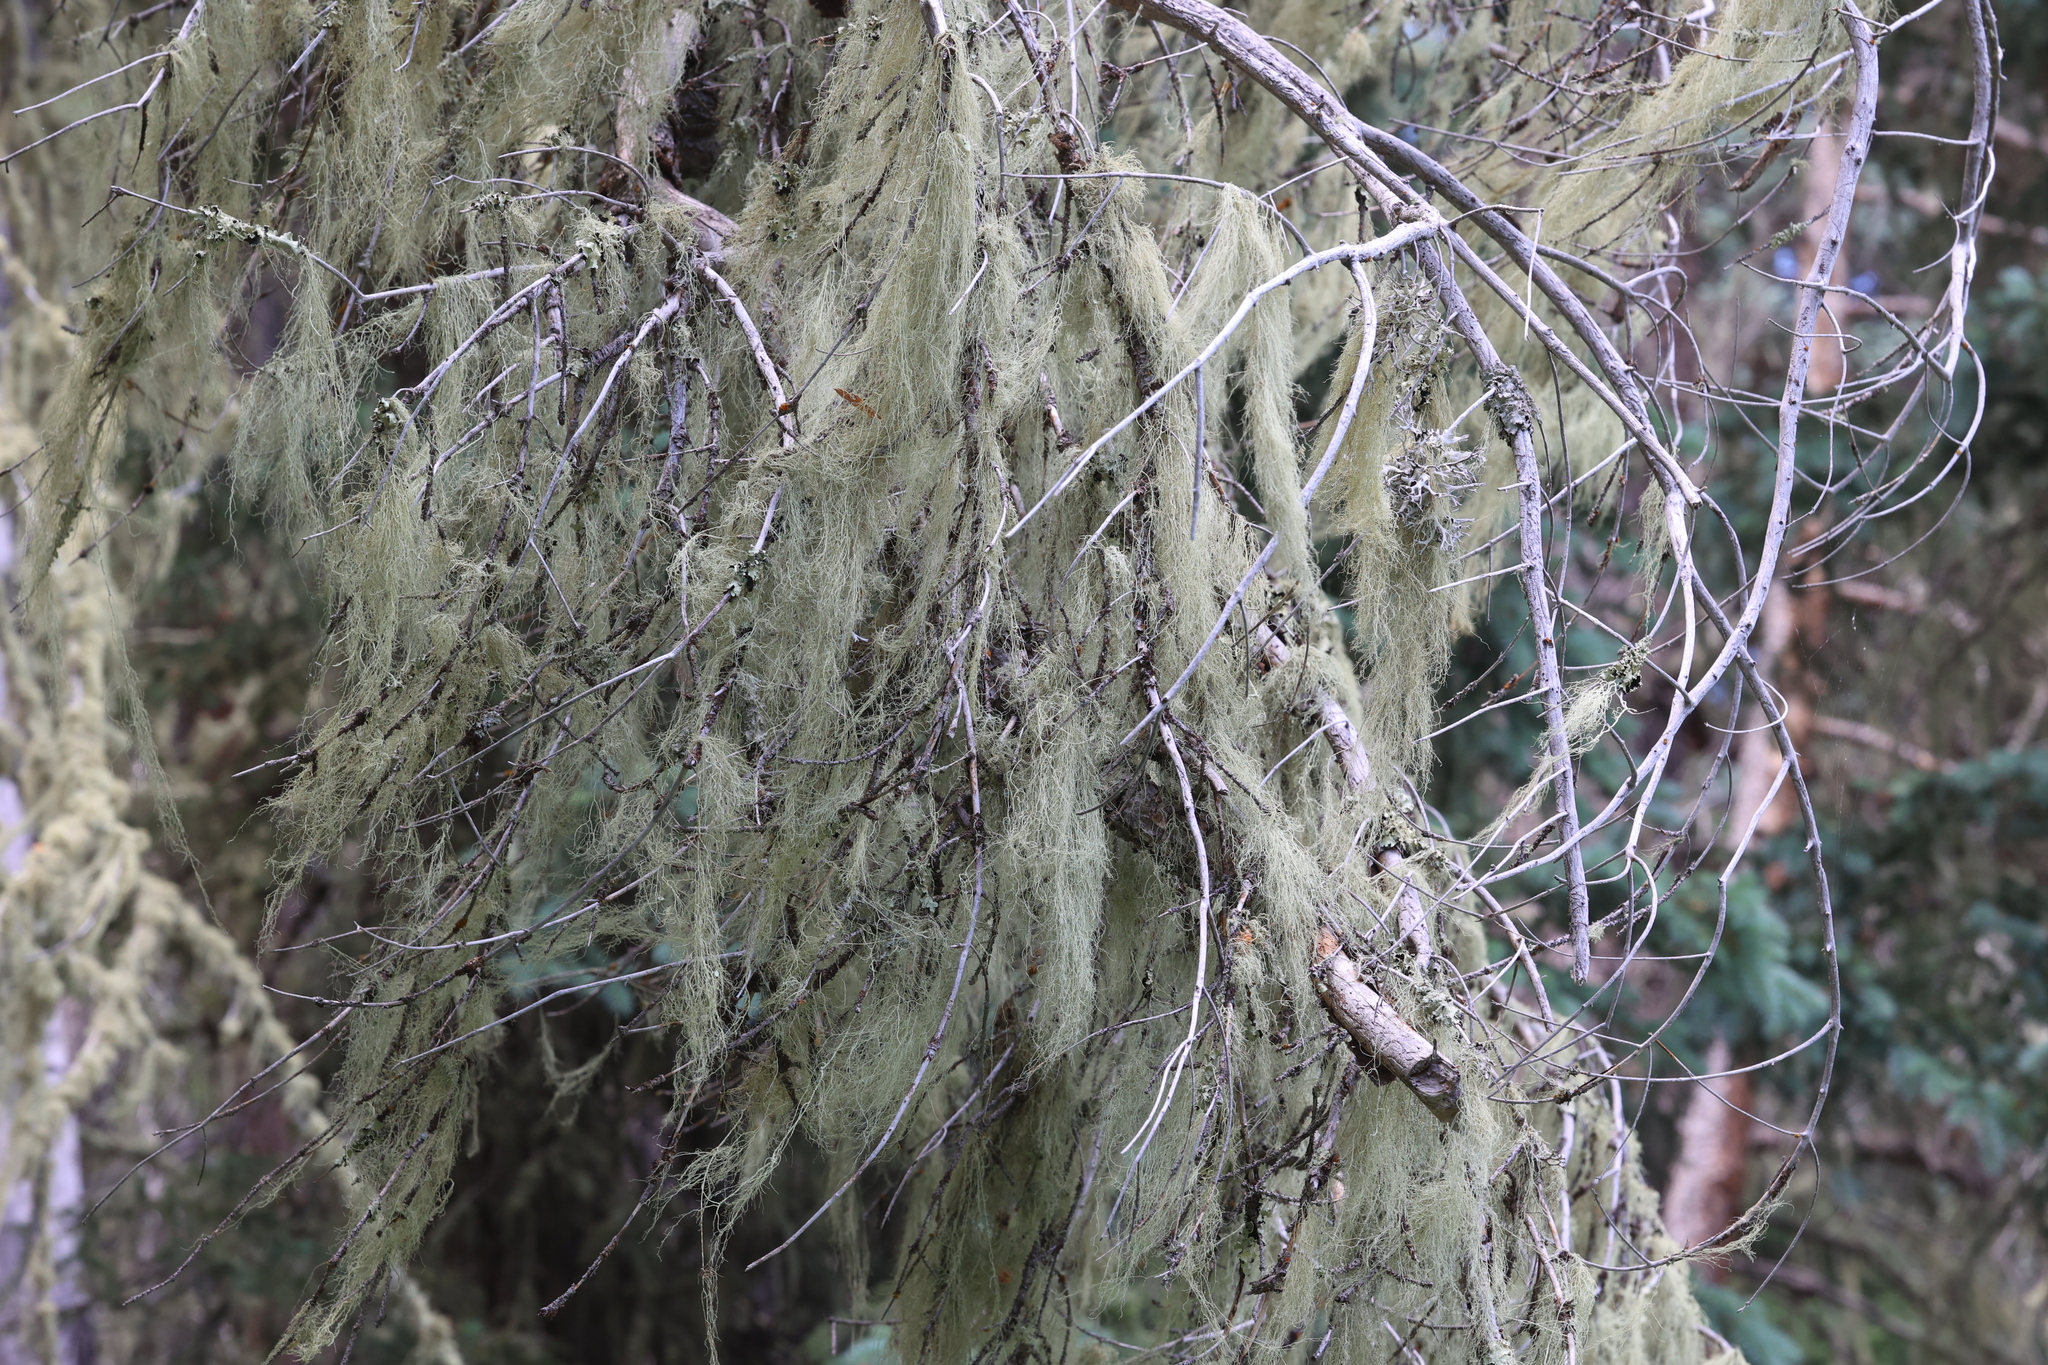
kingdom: Fungi
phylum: Ascomycota
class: Lecanoromycetes
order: Lecanorales
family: Parmeliaceae
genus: Usnea
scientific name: Usnea cavernosa
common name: Pitted beard lichen
